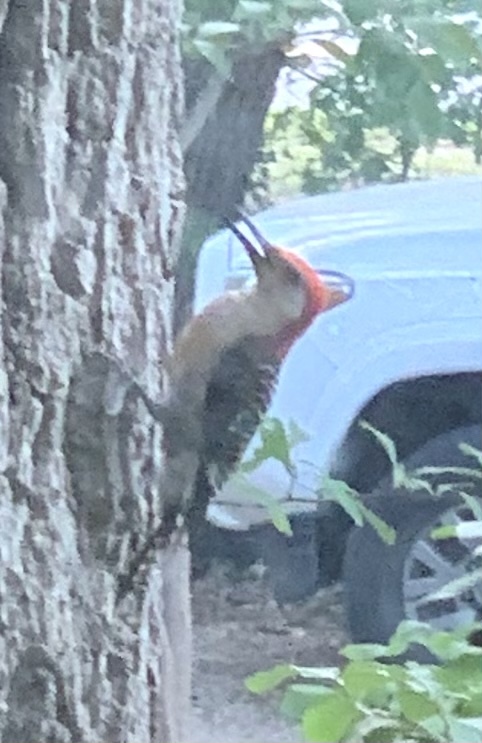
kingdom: Animalia
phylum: Chordata
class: Aves
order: Piciformes
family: Picidae
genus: Melanerpes
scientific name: Melanerpes carolinus
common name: Red-bellied woodpecker
